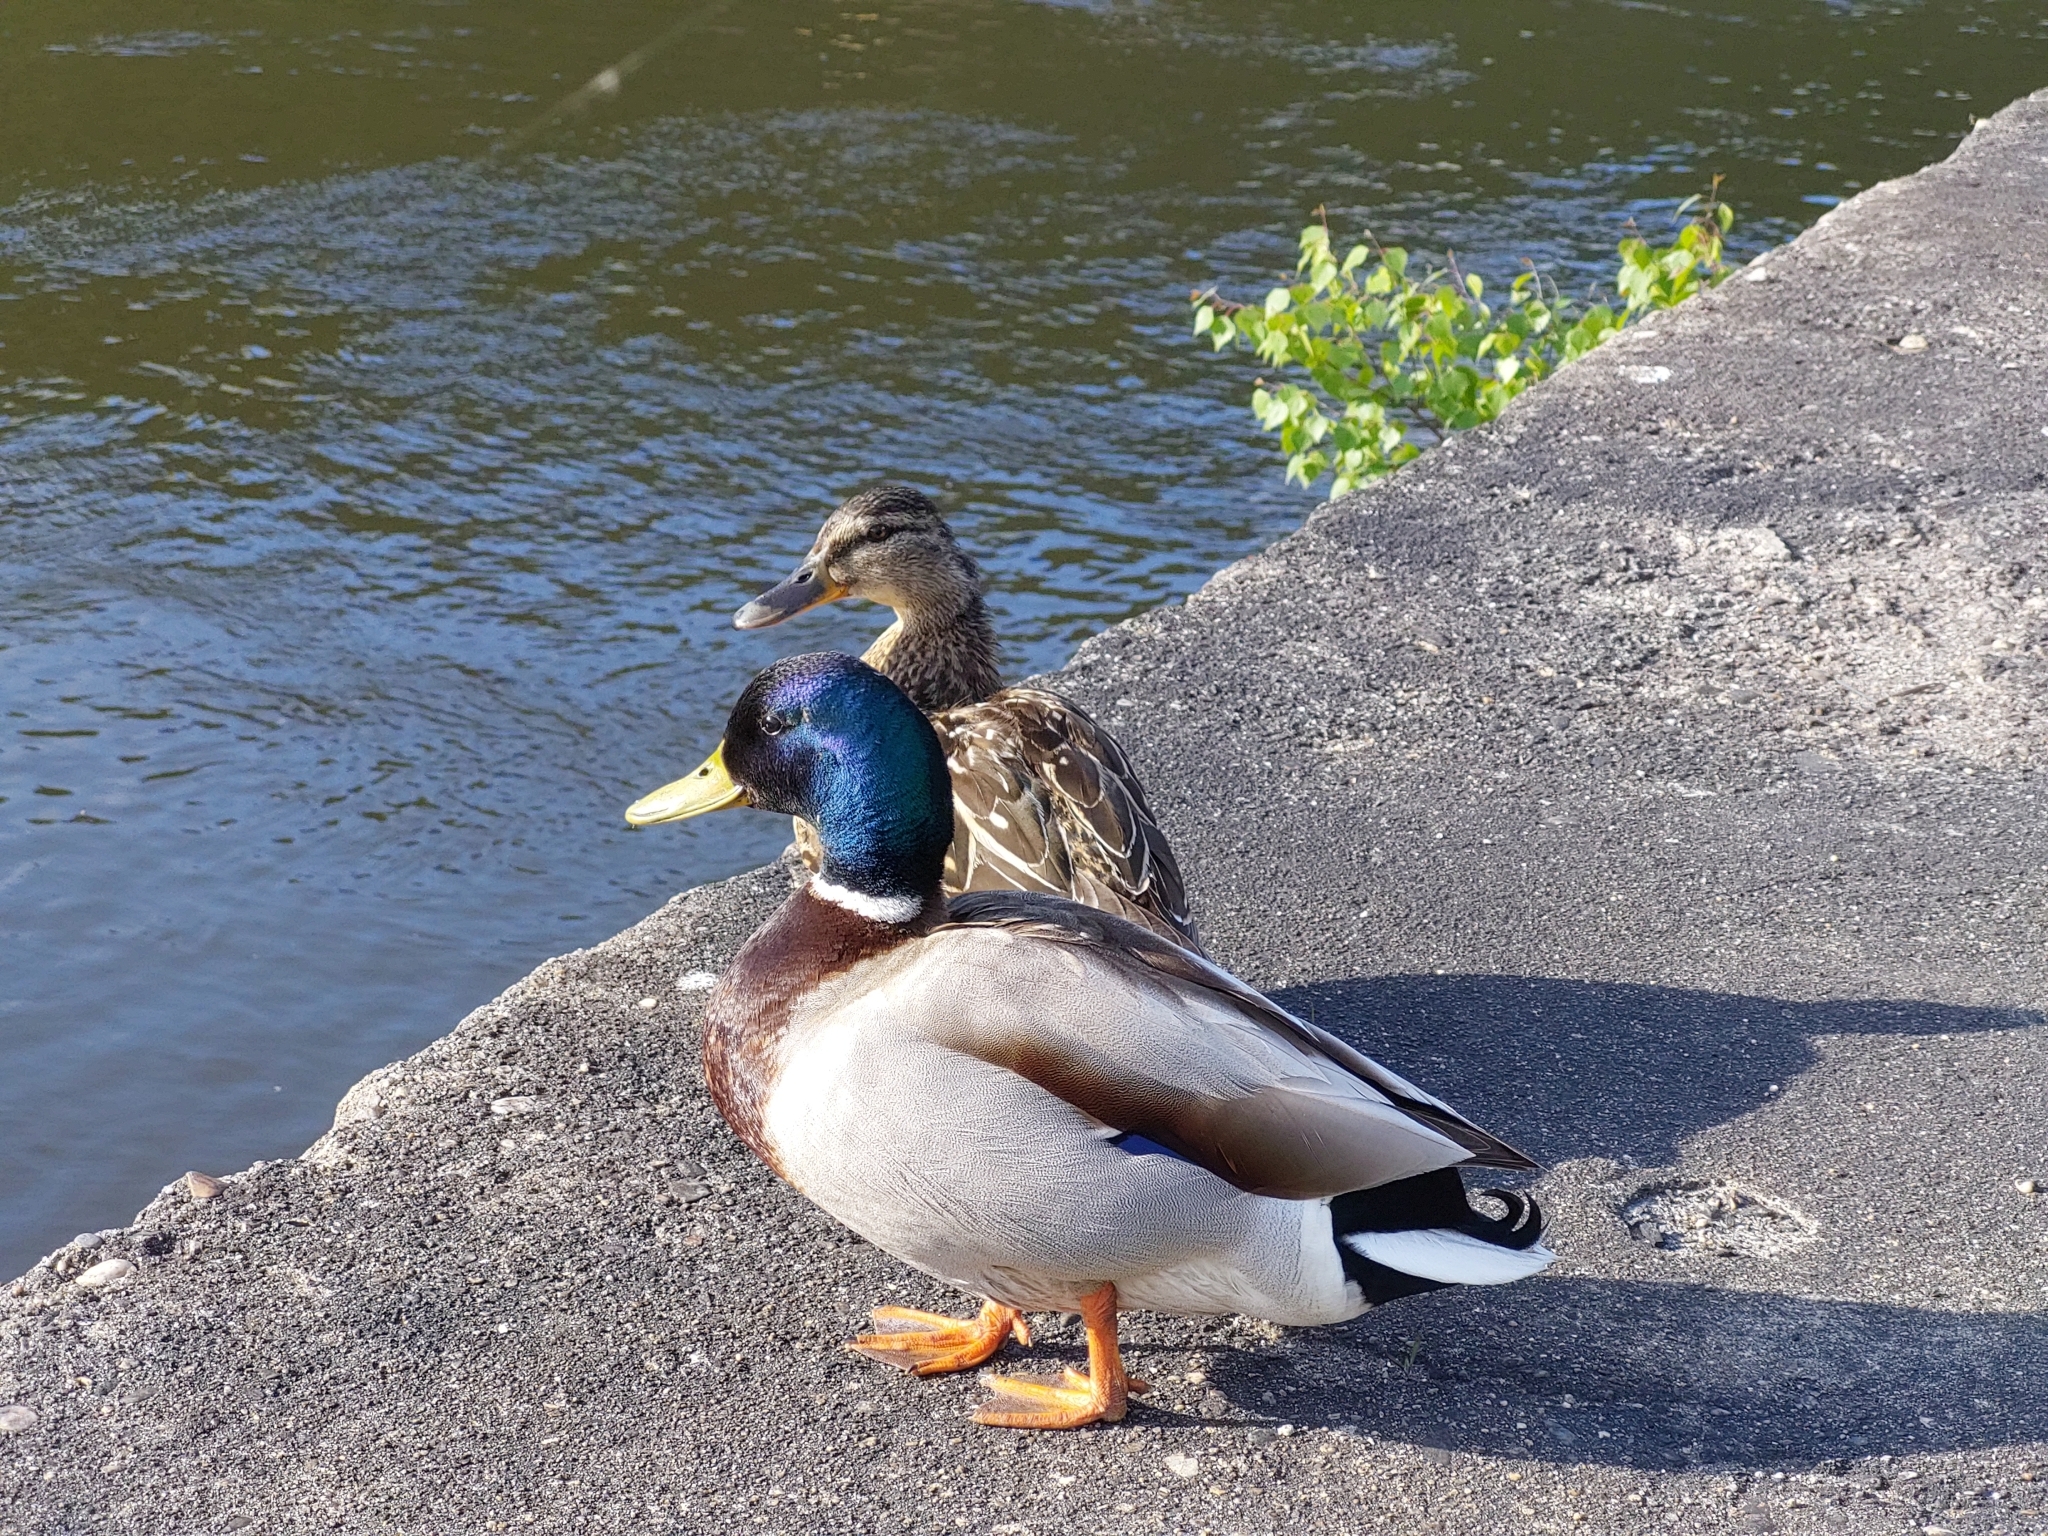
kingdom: Animalia
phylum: Chordata
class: Aves
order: Anseriformes
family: Anatidae
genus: Anas
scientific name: Anas platyrhynchos
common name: Mallard
